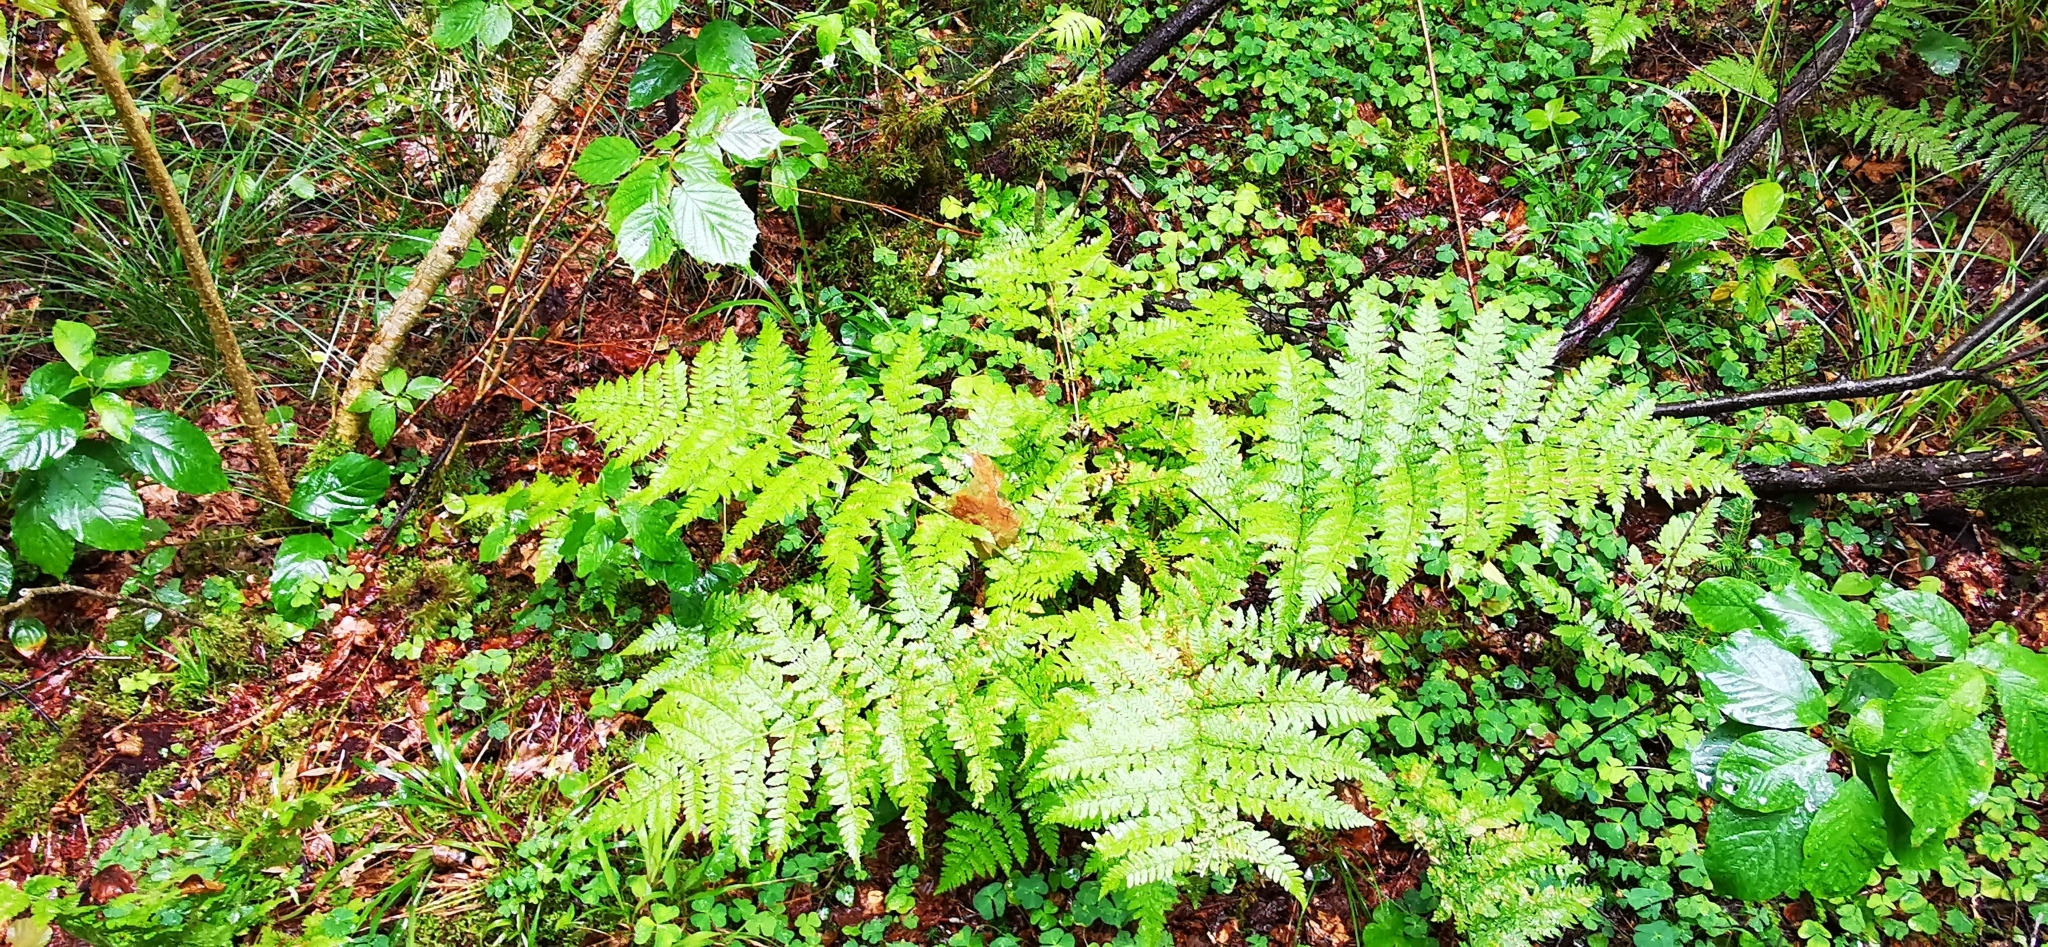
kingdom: Plantae
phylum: Tracheophyta
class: Polypodiopsida
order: Polypodiales
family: Dryopteridaceae
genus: Dryopteris
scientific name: Dryopteris expansa
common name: Northern buckler fern
